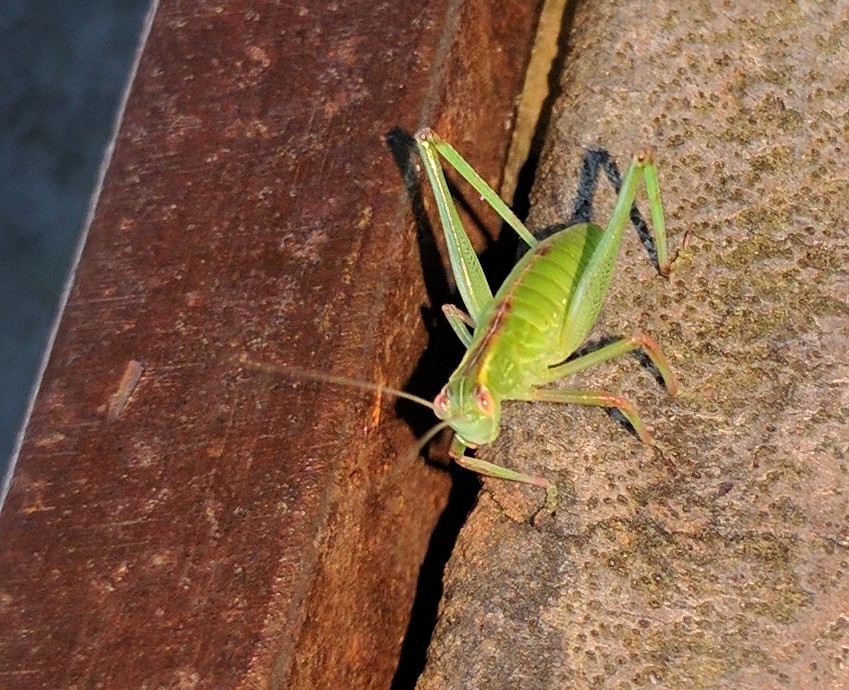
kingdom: Animalia
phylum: Arthropoda
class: Insecta
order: Orthoptera
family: Tettigoniidae
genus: Caedicia
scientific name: Caedicia simplex
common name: Common garden katydid
